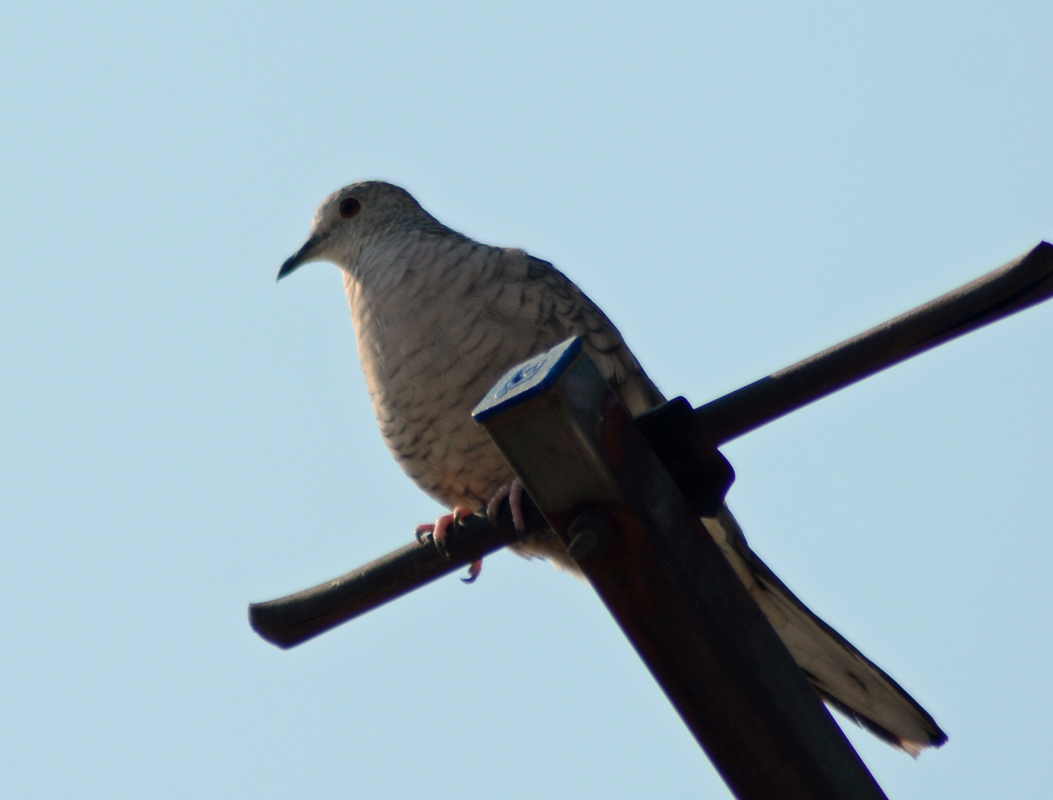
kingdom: Animalia
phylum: Chordata
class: Aves
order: Columbiformes
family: Columbidae
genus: Columbina
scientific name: Columbina inca
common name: Inca dove
